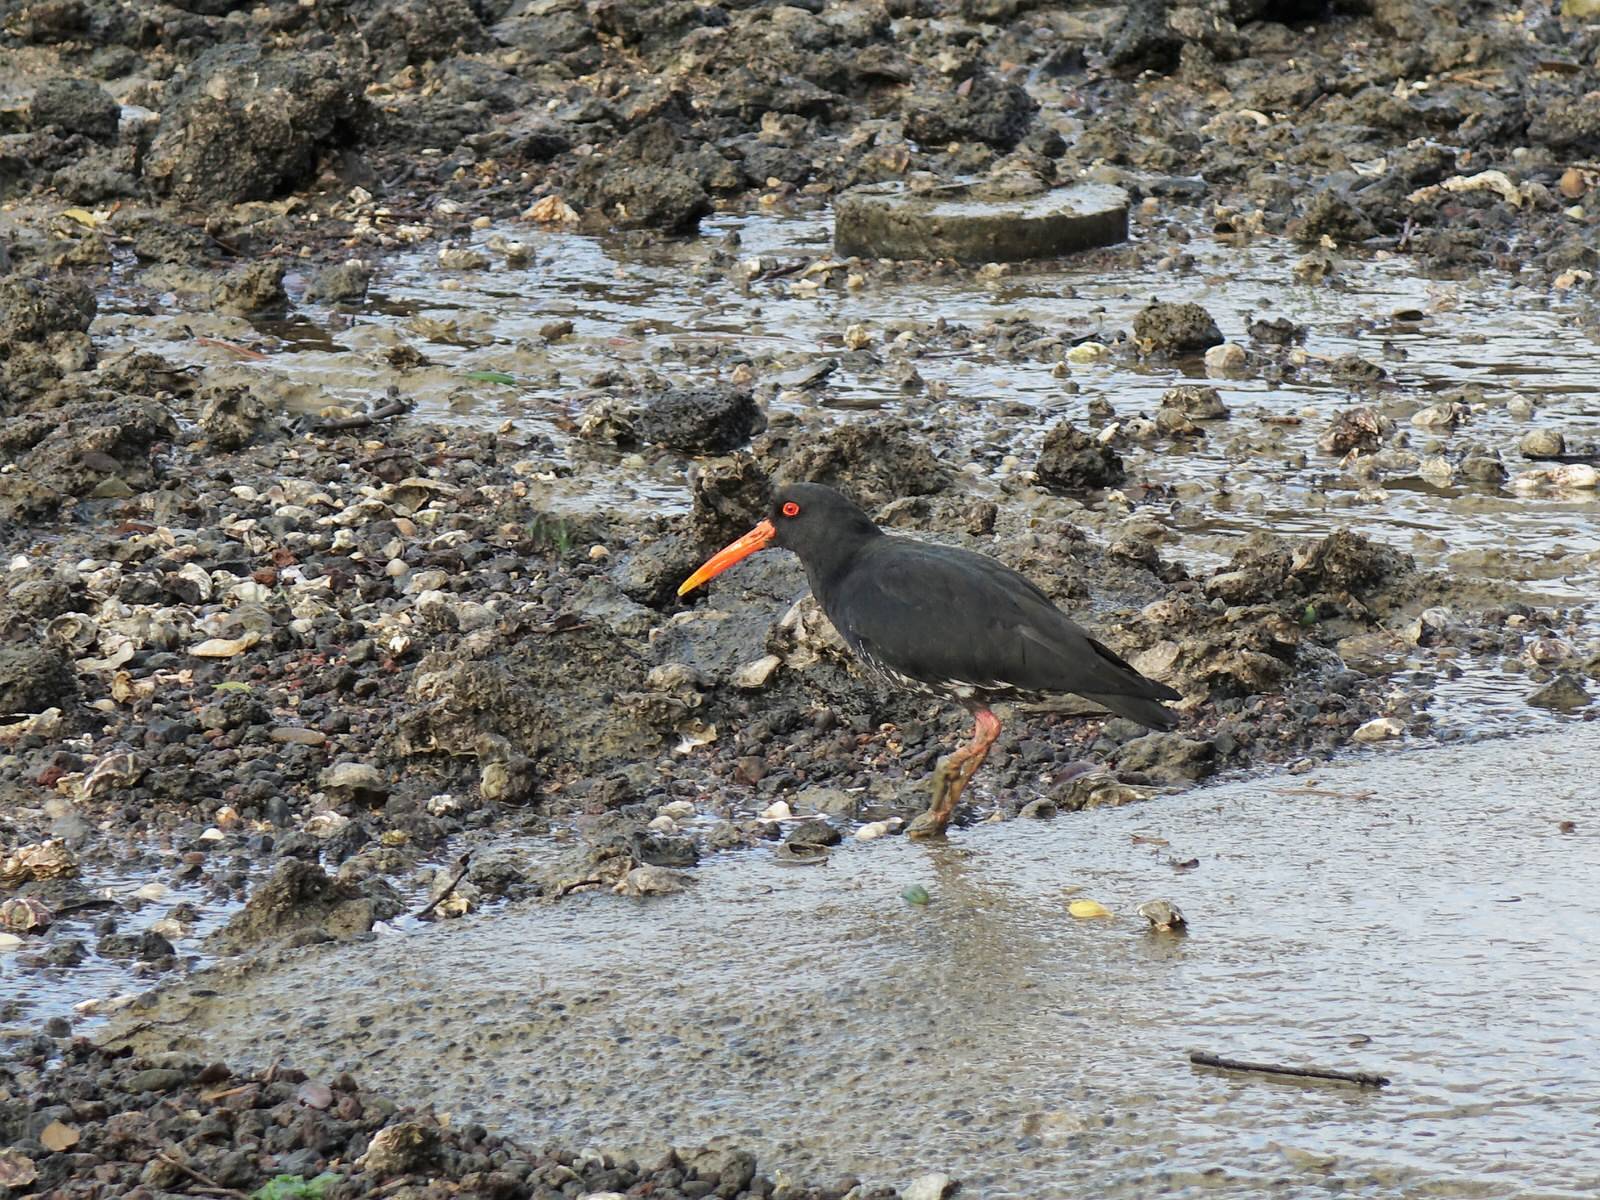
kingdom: Animalia
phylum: Chordata
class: Aves
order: Charadriiformes
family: Haematopodidae
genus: Haematopus
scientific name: Haematopus unicolor
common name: Variable oystercatcher
